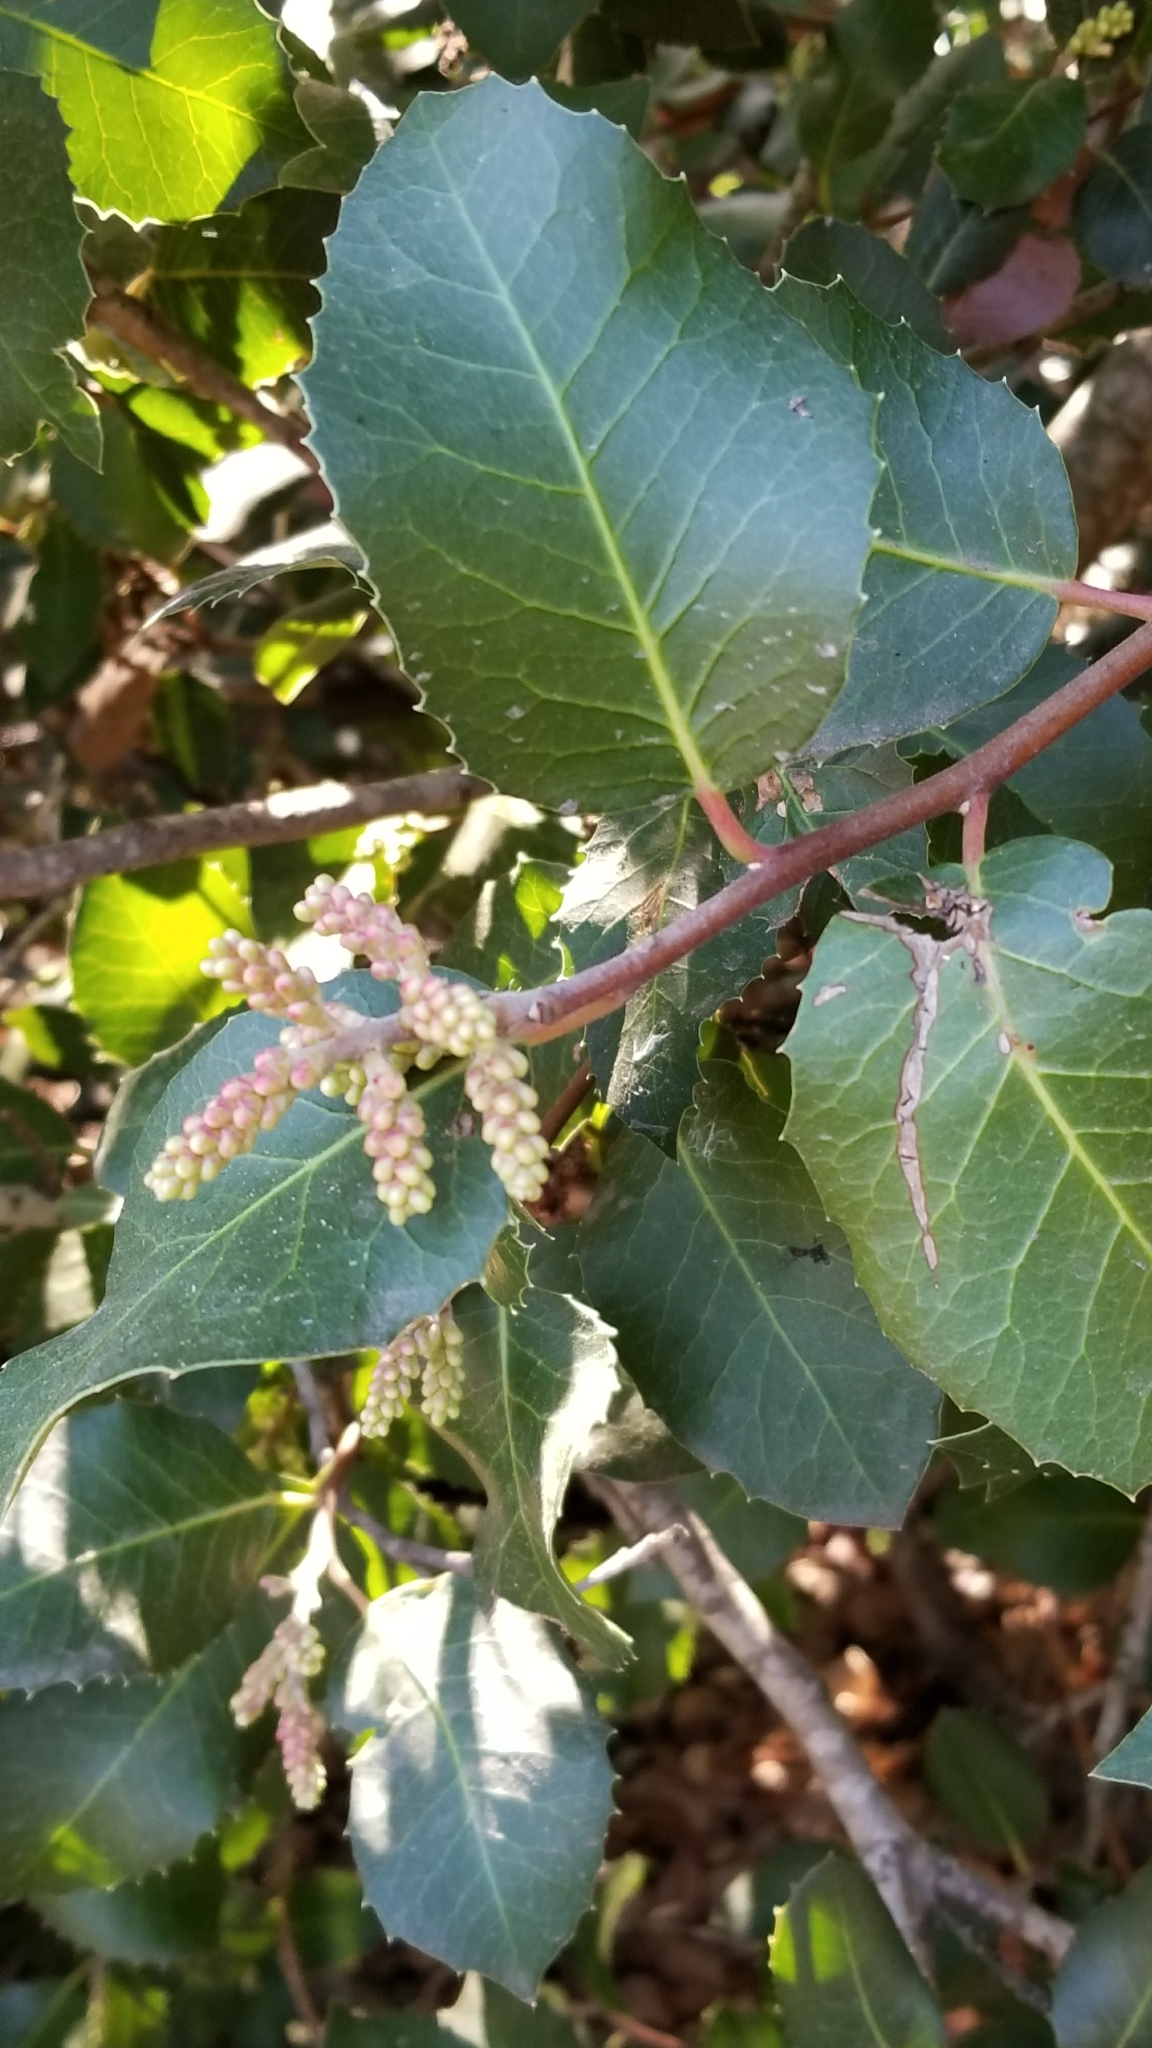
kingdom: Plantae
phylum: Tracheophyta
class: Magnoliopsida
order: Sapindales
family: Anacardiaceae
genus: Rhus
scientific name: Rhus
